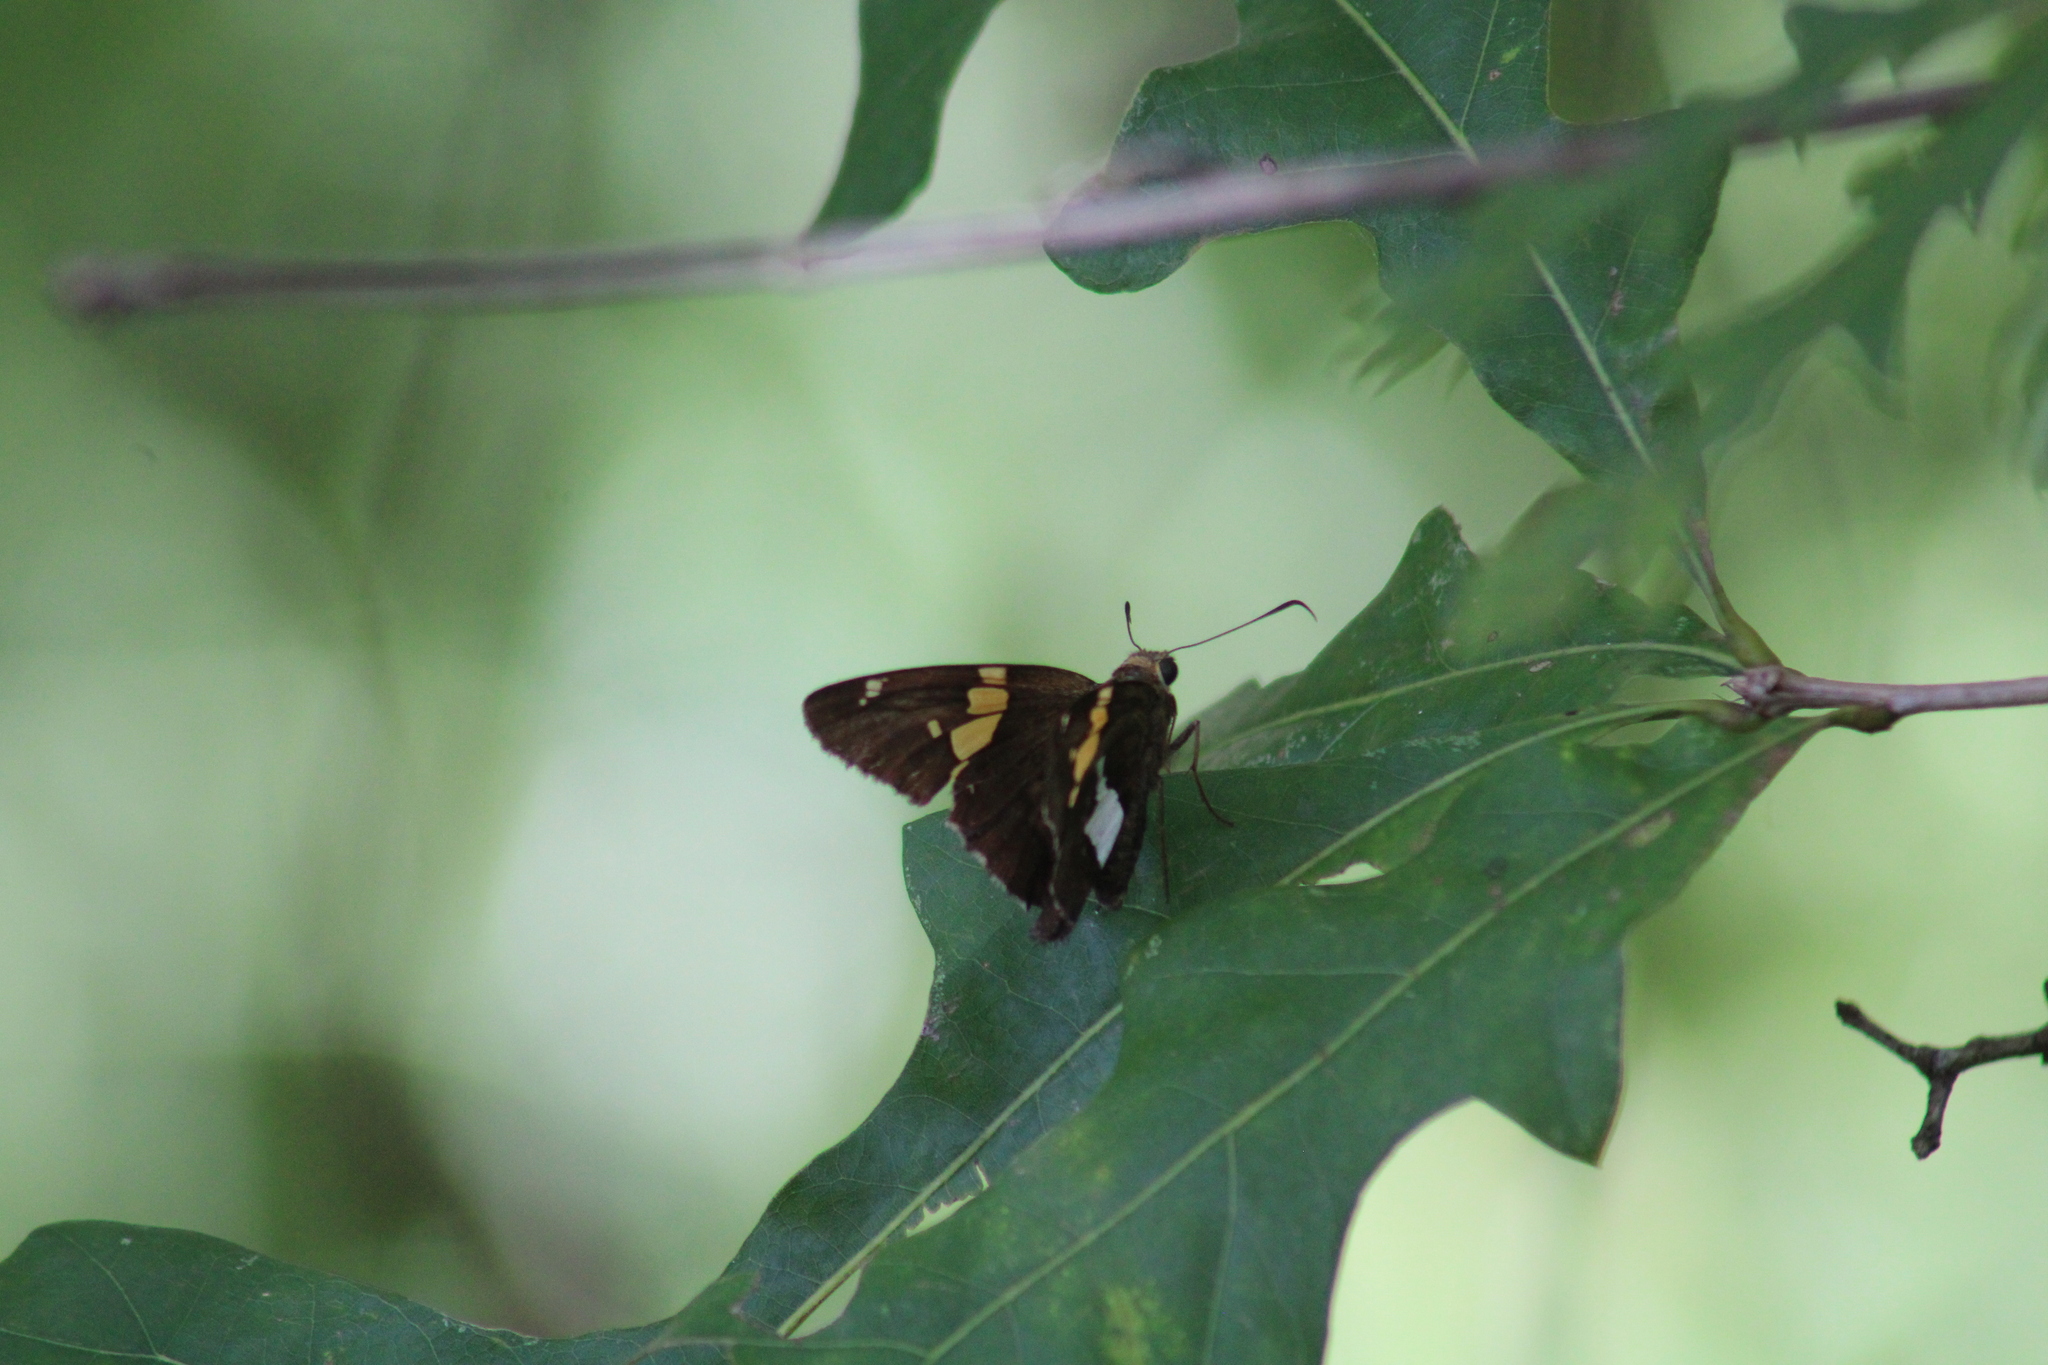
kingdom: Animalia
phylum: Arthropoda
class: Insecta
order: Lepidoptera
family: Hesperiidae
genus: Epargyreus
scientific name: Epargyreus clarus
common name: Silver-spotted skipper
